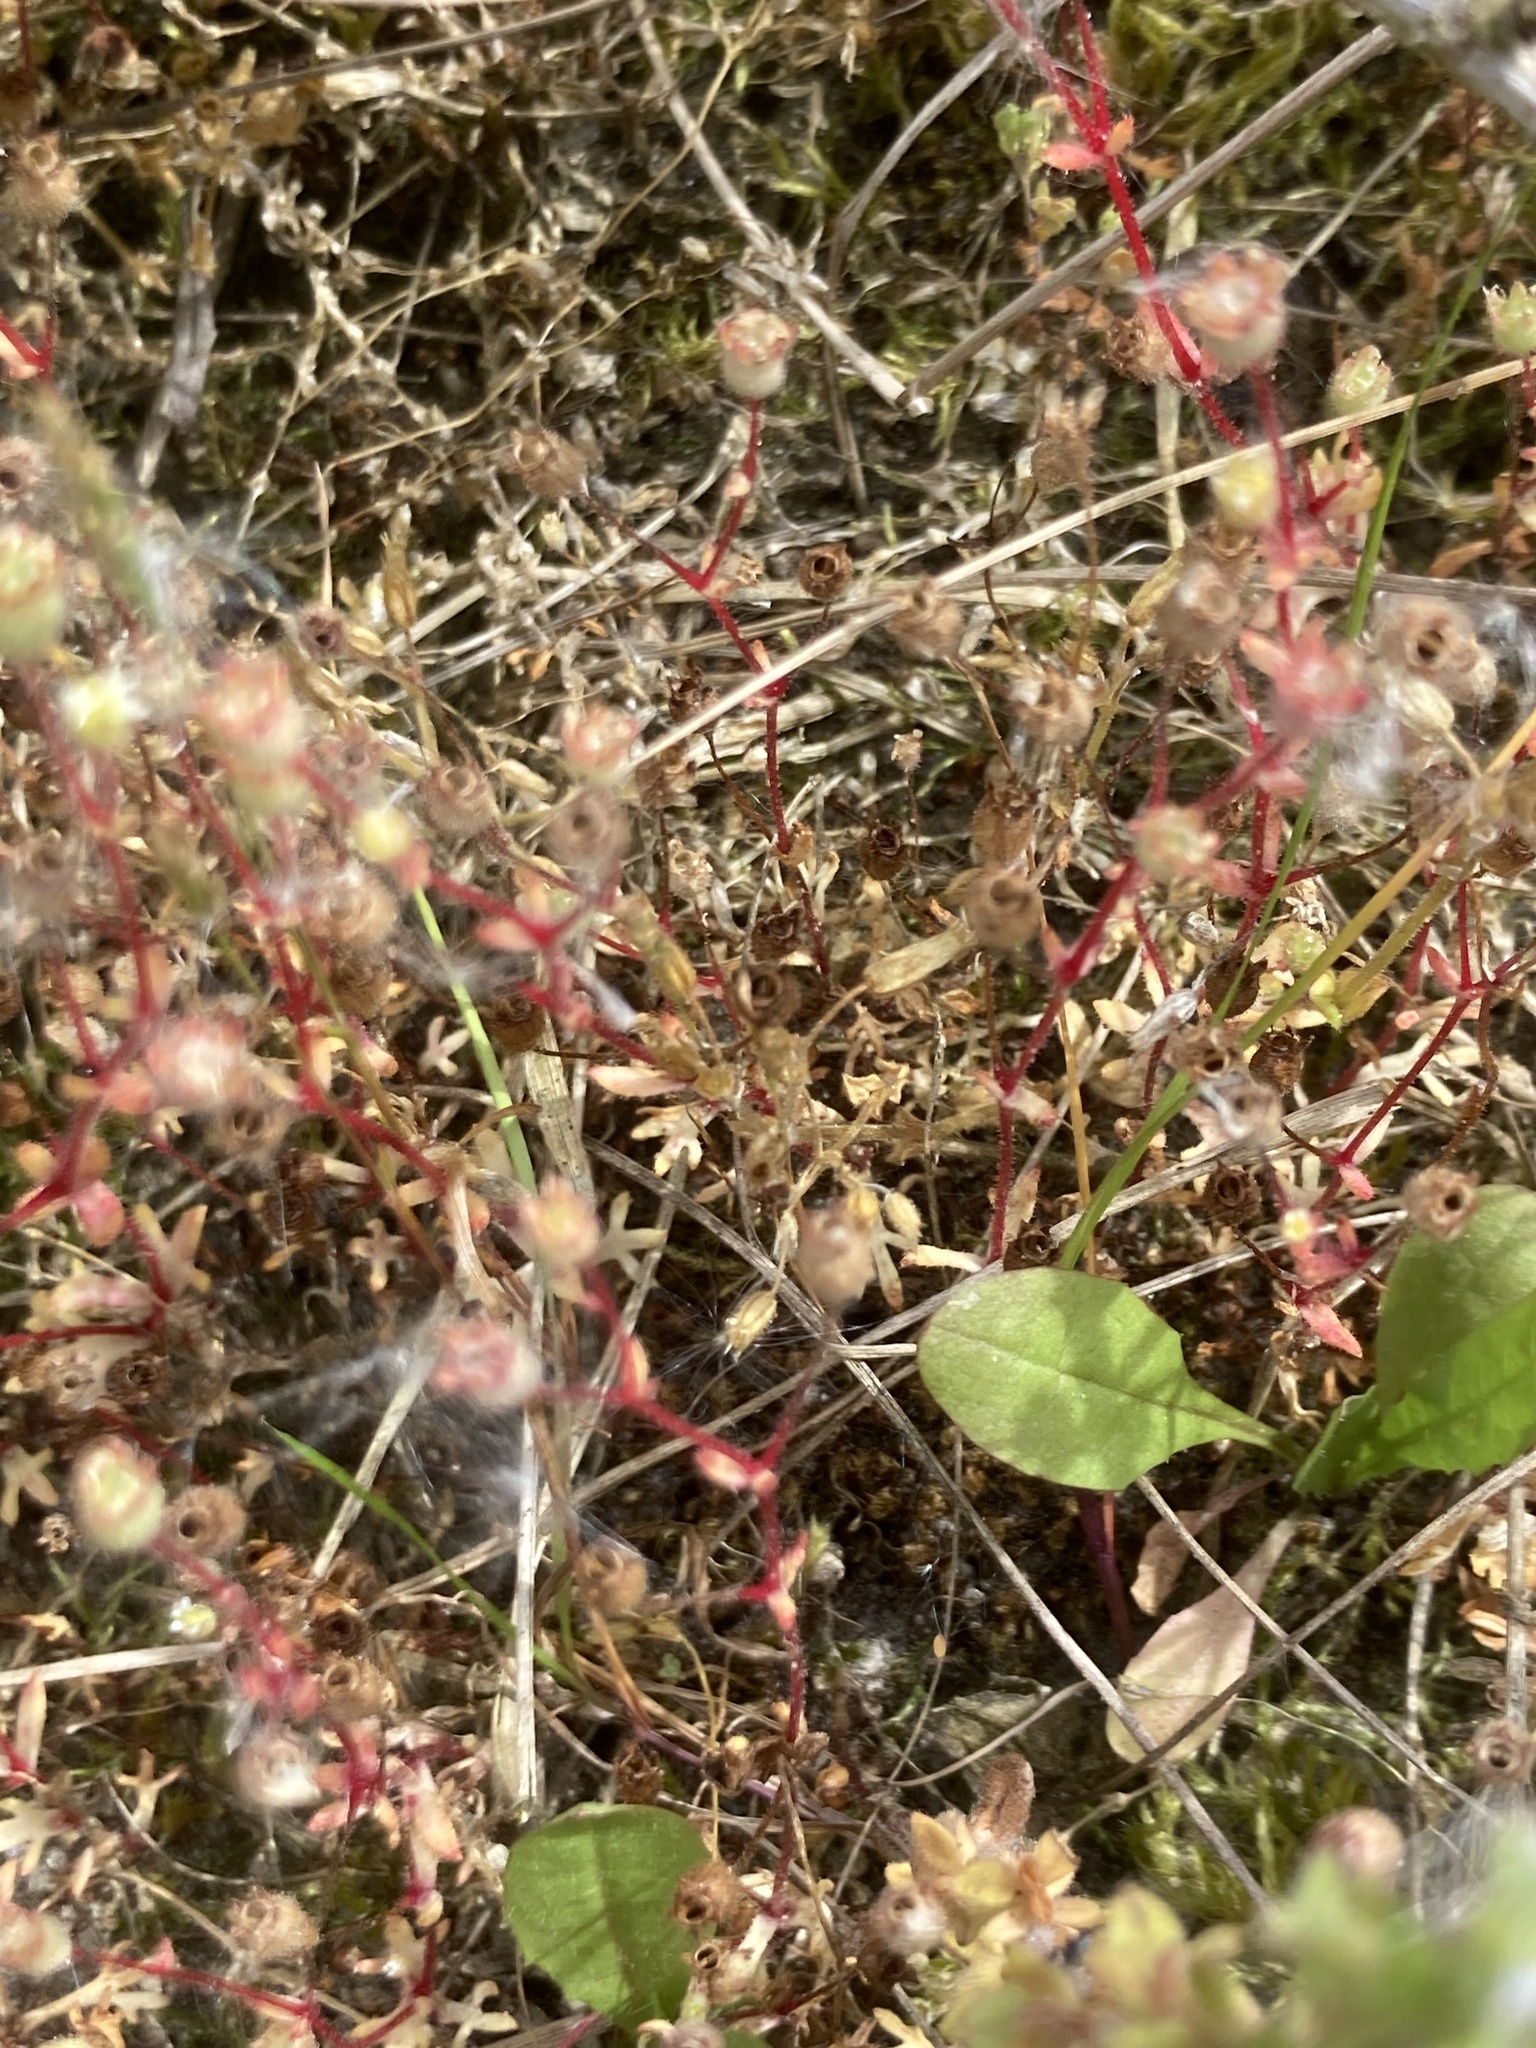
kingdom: Plantae
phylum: Tracheophyta
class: Magnoliopsida
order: Saxifragales
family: Saxifragaceae
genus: Saxifraga
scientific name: Saxifraga tridactylites
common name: Rue-leaved saxifrage
